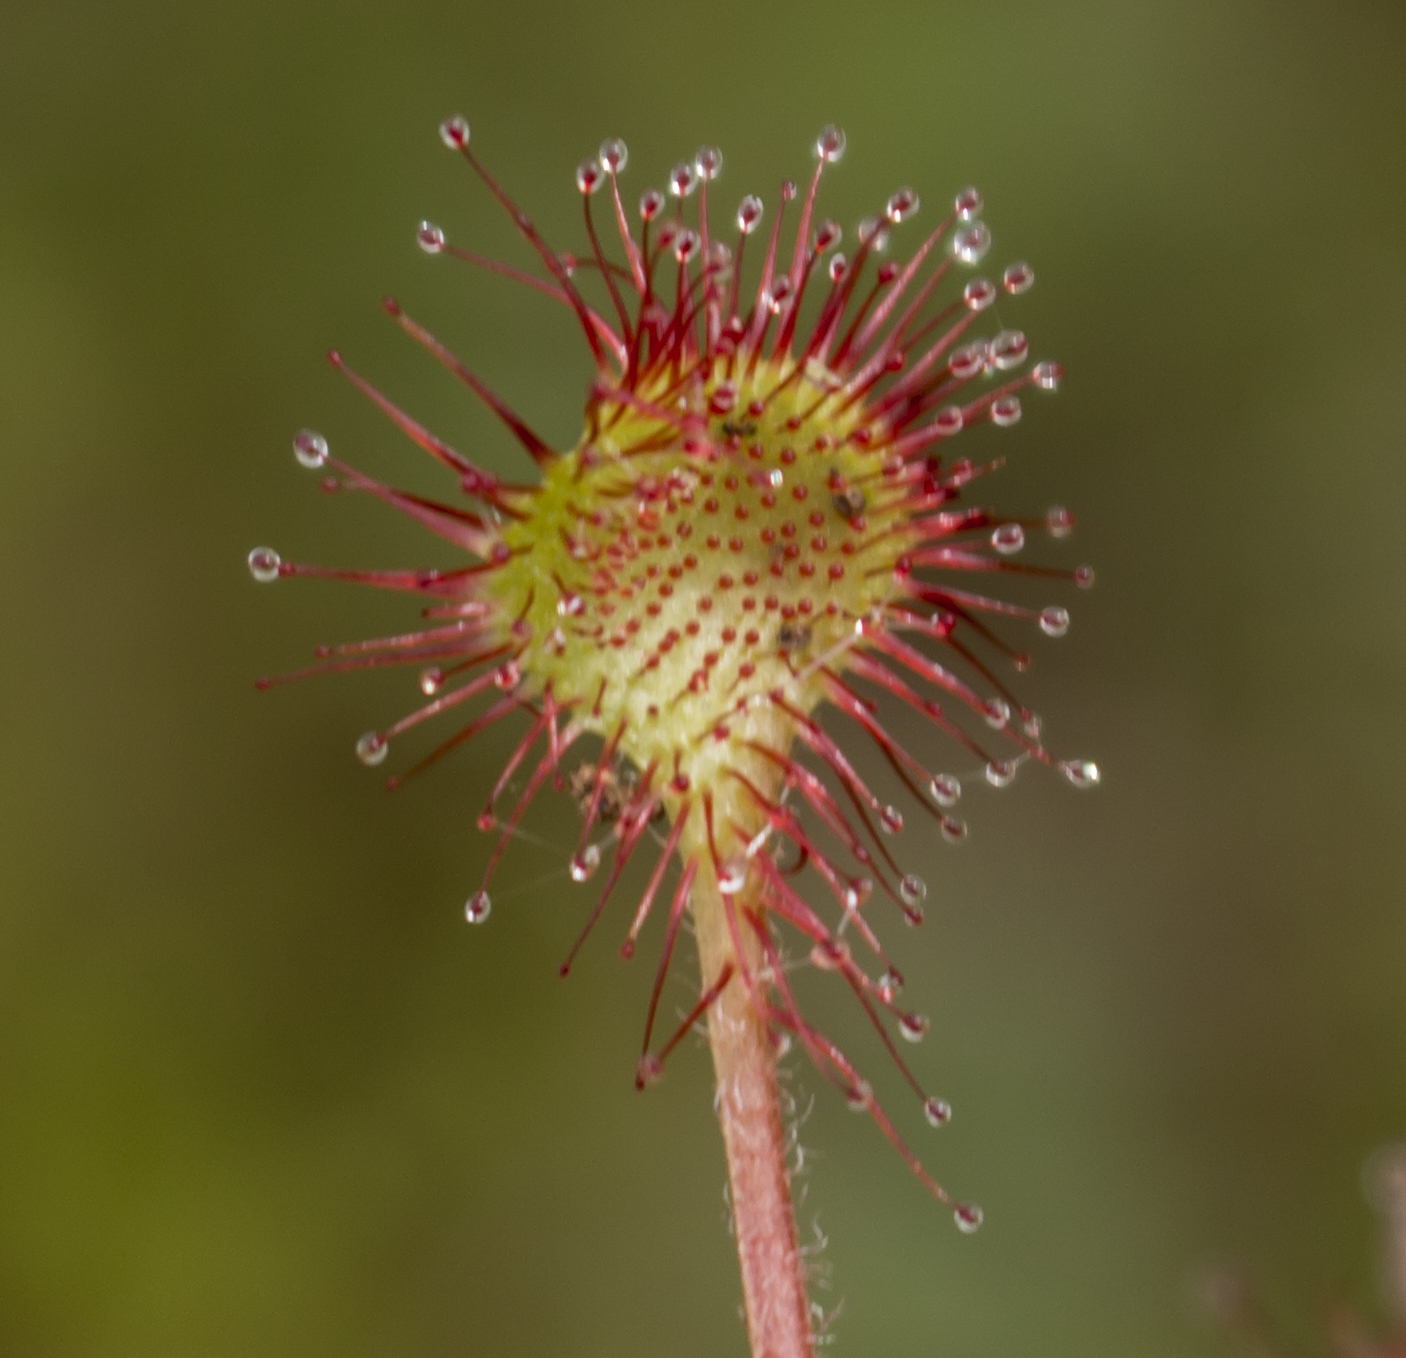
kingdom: Plantae
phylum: Tracheophyta
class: Magnoliopsida
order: Caryophyllales
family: Droseraceae
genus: Drosera
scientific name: Drosera rotundifolia
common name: Round-leaved sundew
